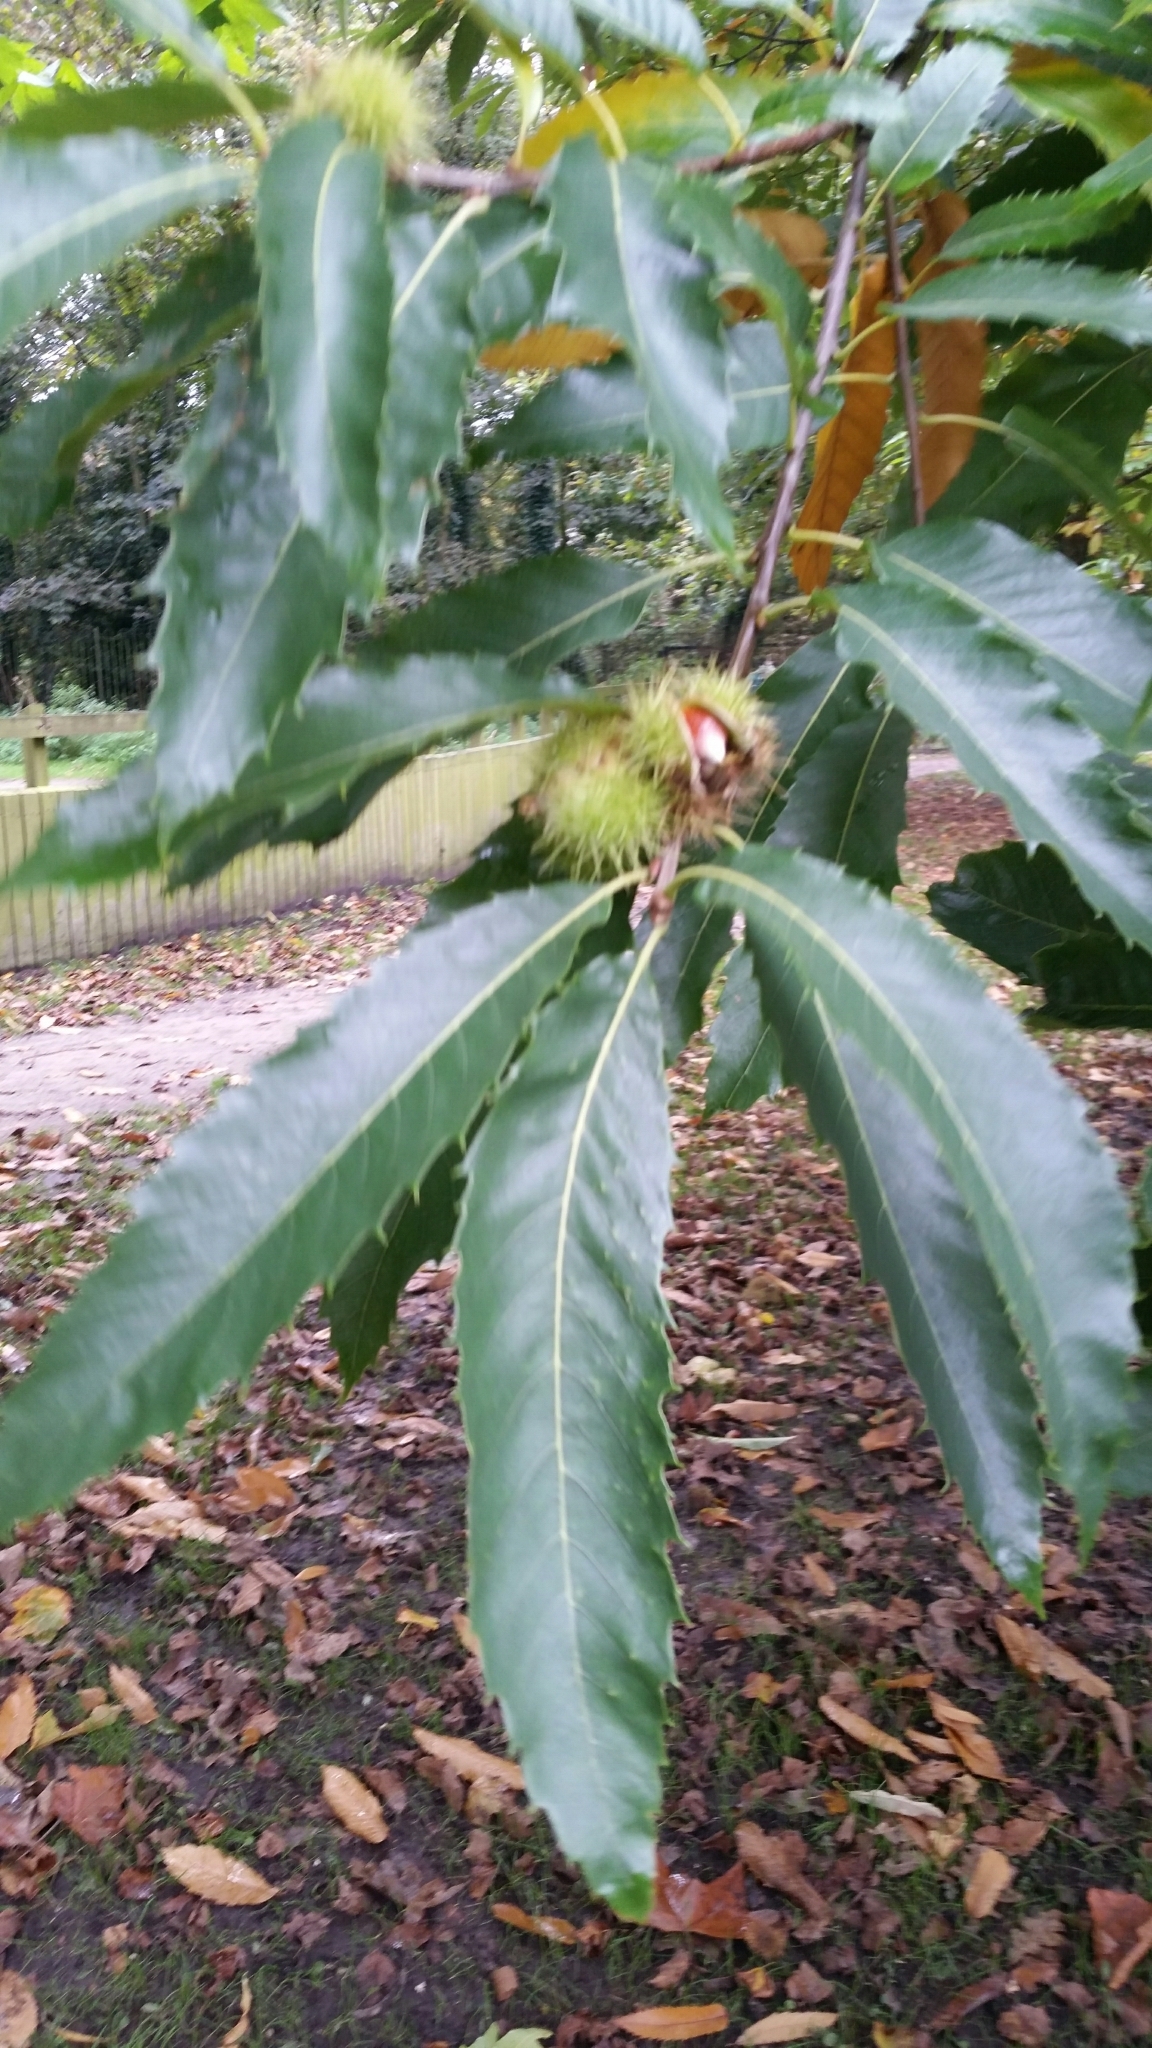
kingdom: Plantae
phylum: Tracheophyta
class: Magnoliopsida
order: Fagales
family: Fagaceae
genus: Castanea
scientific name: Castanea sativa
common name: Sweet chestnut
